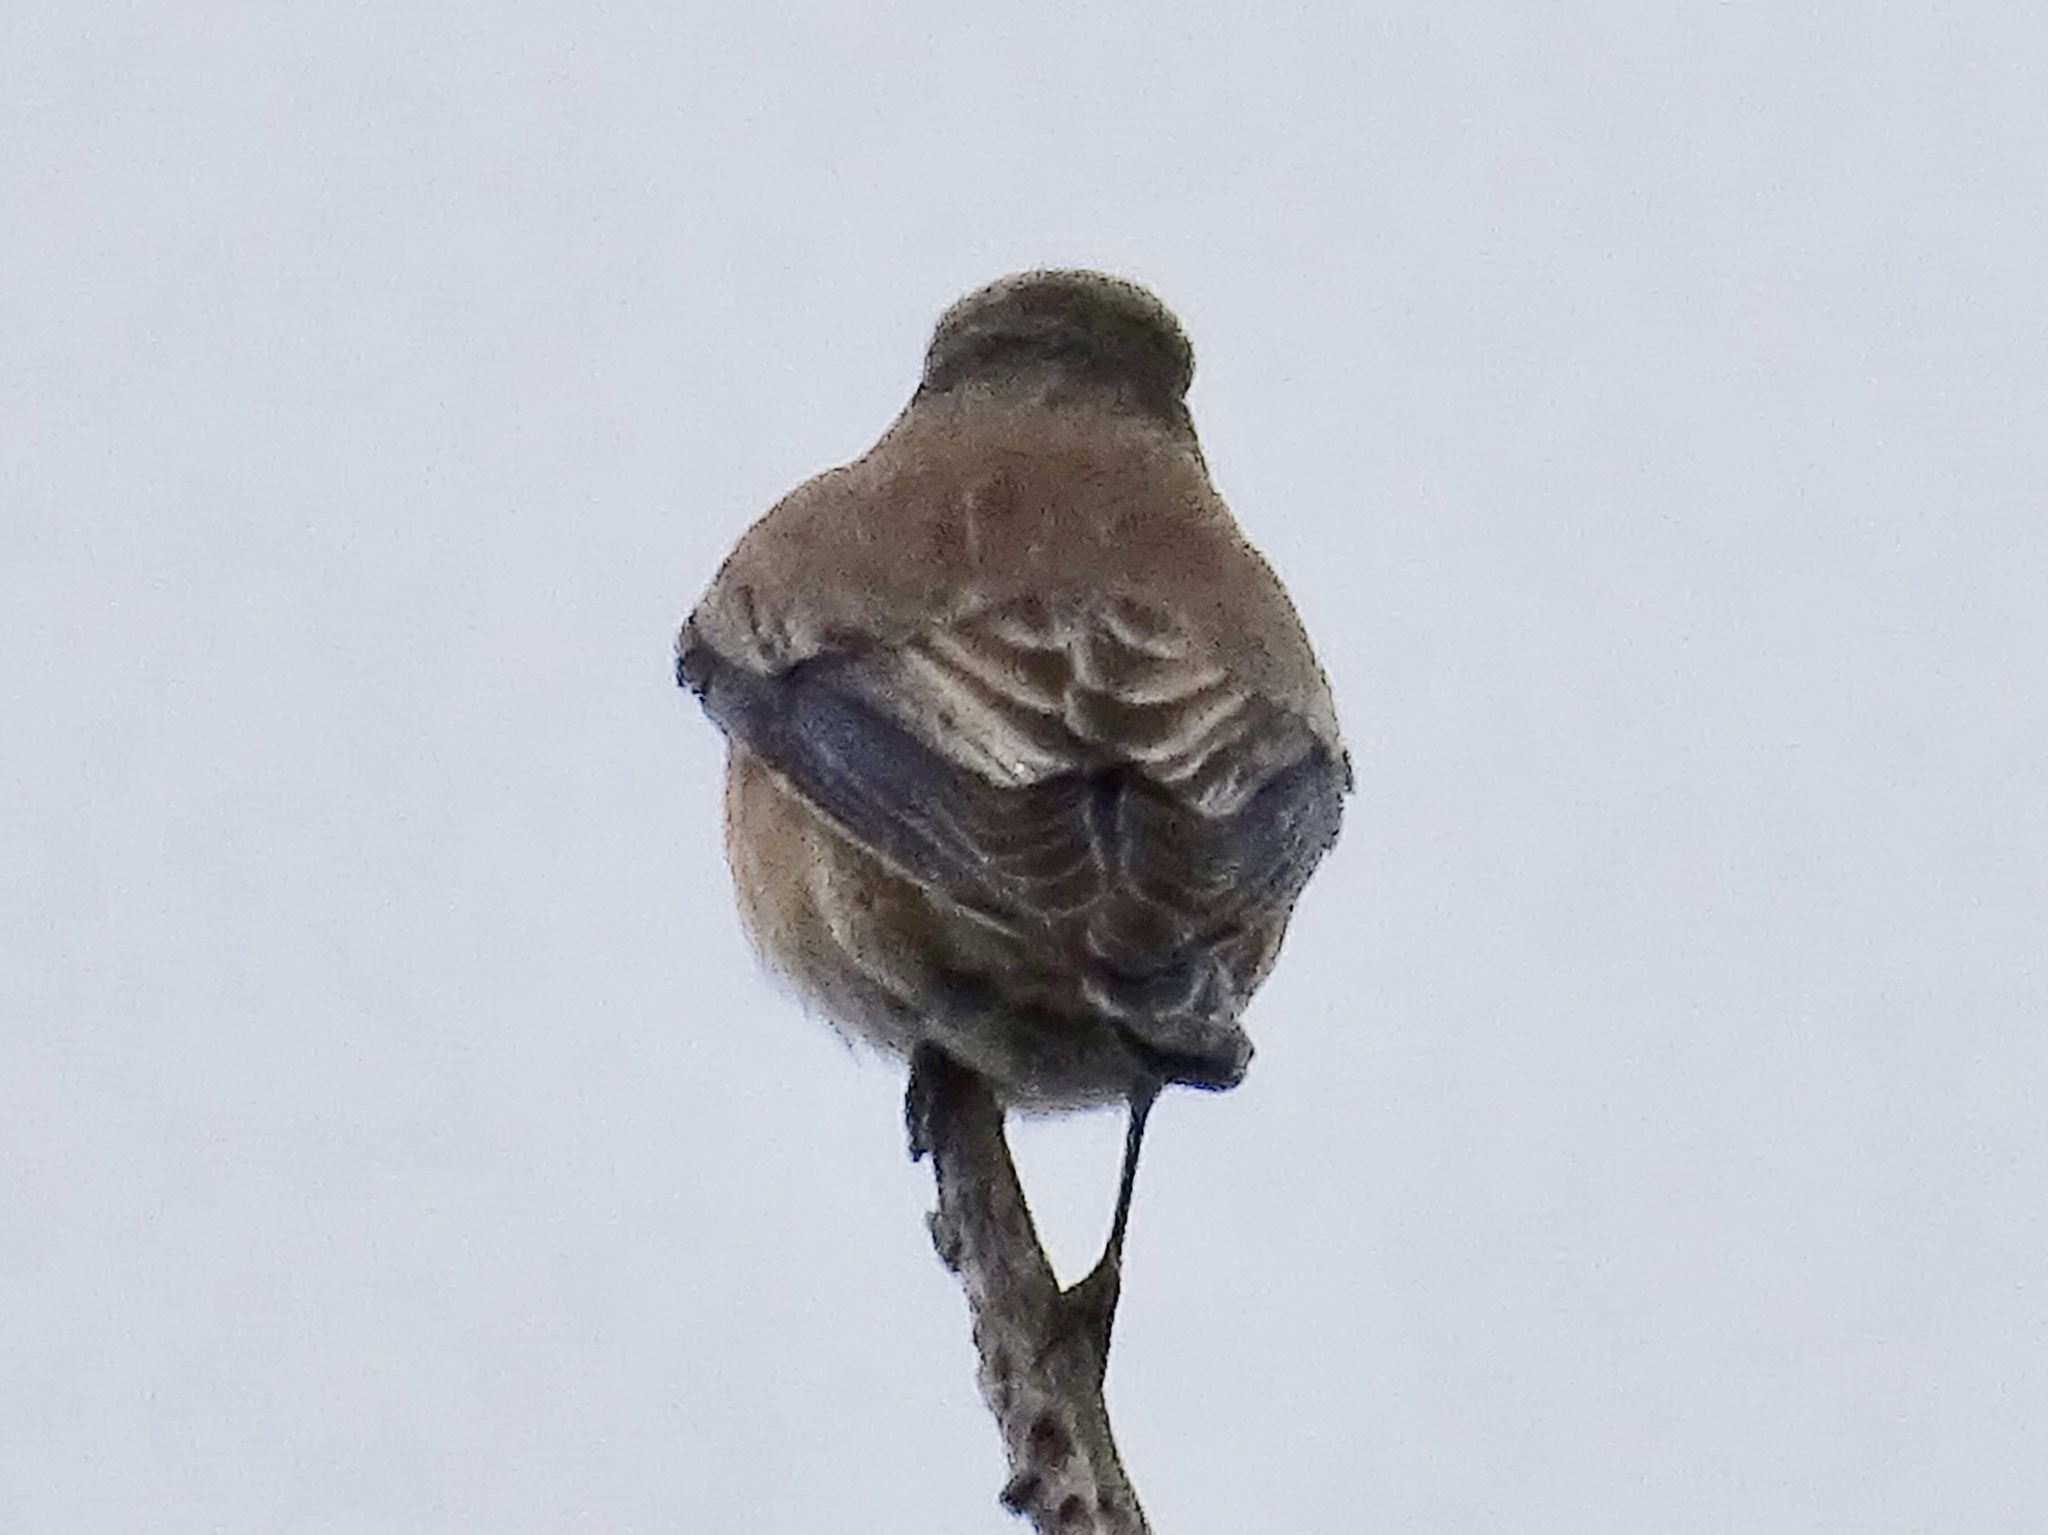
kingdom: Animalia
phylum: Chordata
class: Aves
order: Passeriformes
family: Turdidae
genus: Sialia
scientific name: Sialia mexicana
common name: Western bluebird
